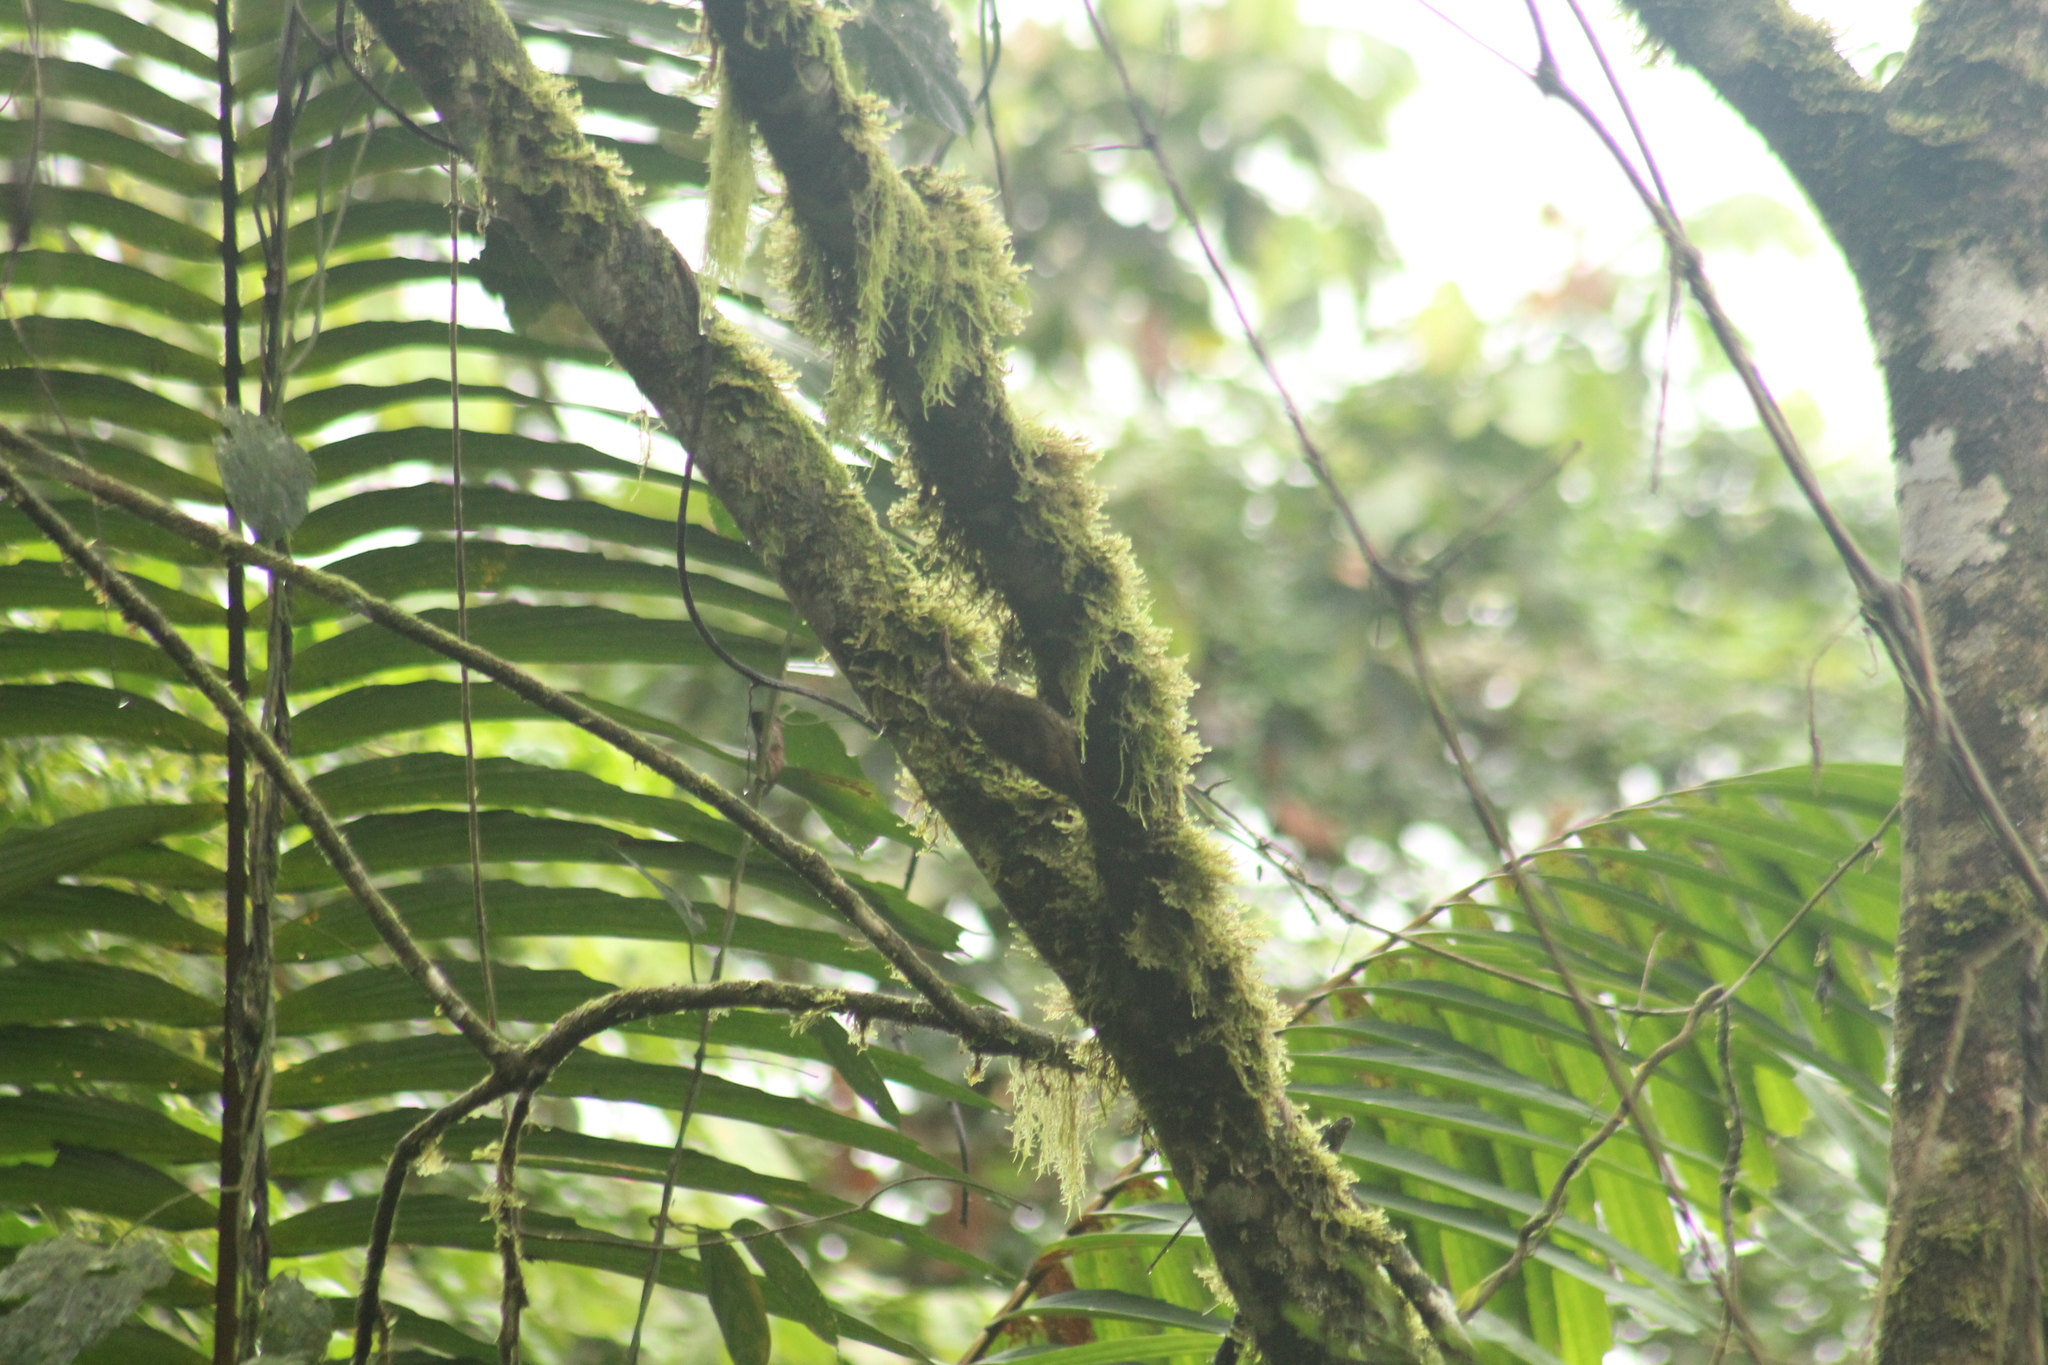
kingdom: Animalia
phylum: Chordata
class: Aves
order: Passeriformes
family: Furnariidae
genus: Xiphorhynchus
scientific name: Xiphorhynchus erythropygius
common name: Spotted woodcreeper
